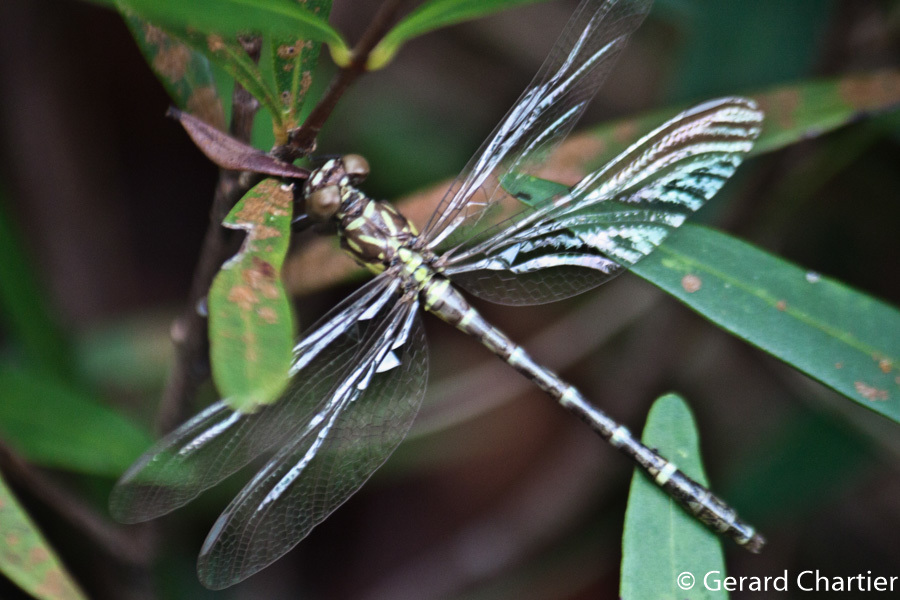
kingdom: Animalia
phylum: Arthropoda
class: Insecta
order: Odonata
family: Gomphidae
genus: Burmagomphus
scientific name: Burmagomphus asahinai
